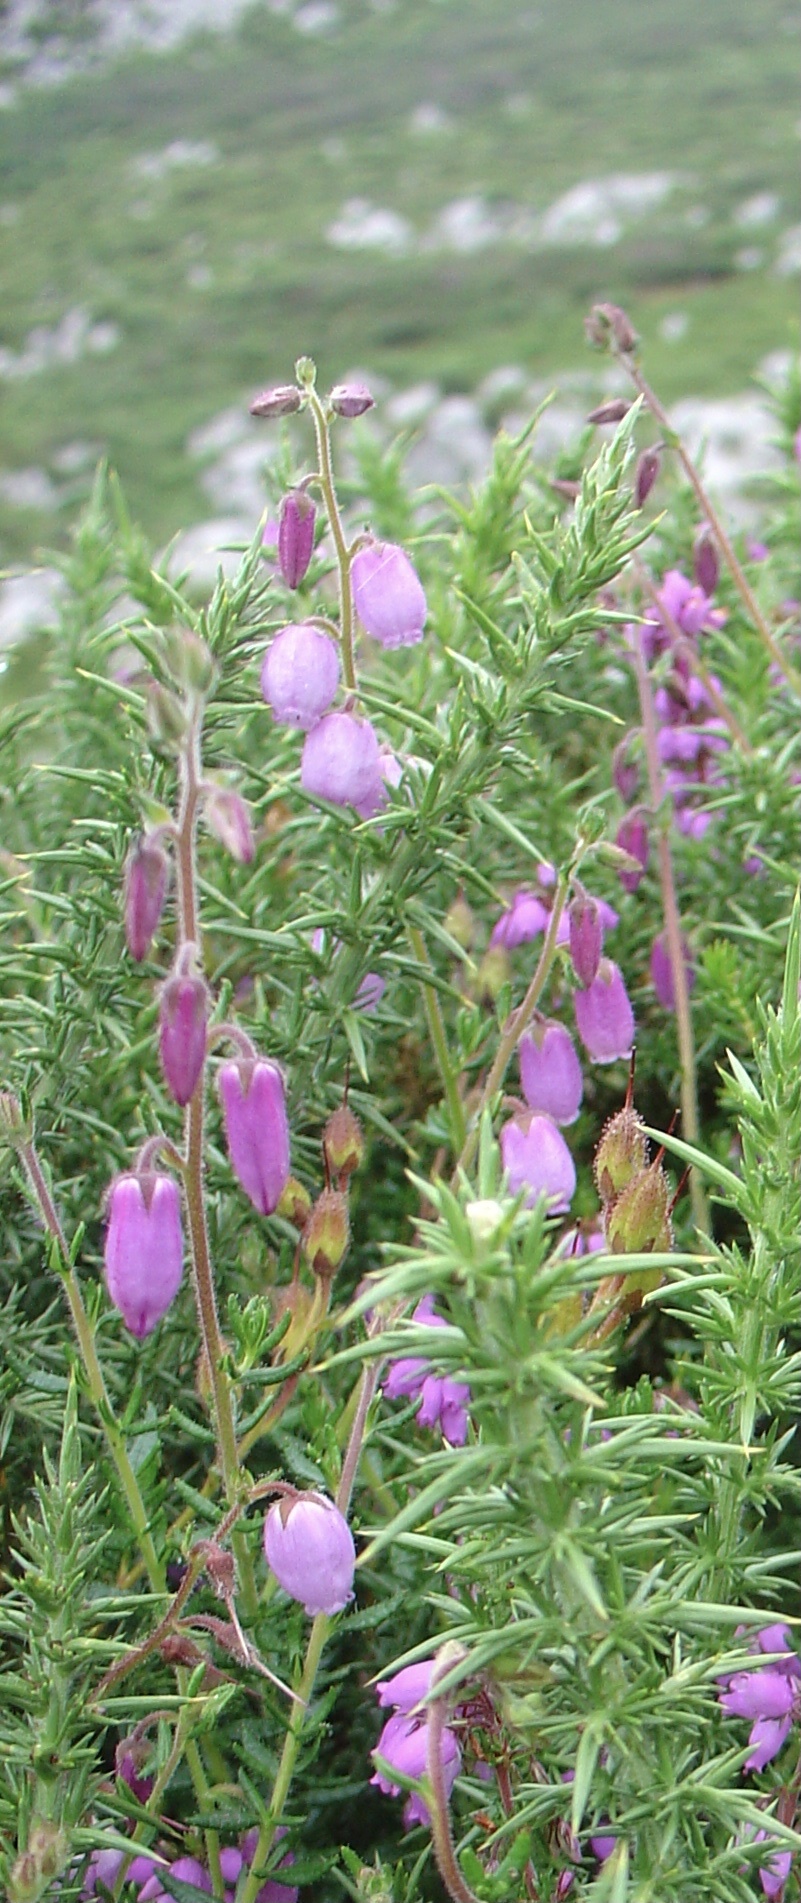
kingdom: Plantae
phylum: Tracheophyta
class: Magnoliopsida
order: Ericales
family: Ericaceae
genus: Daboecia
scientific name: Daboecia cantabrica
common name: St. dabeoc's-heath
